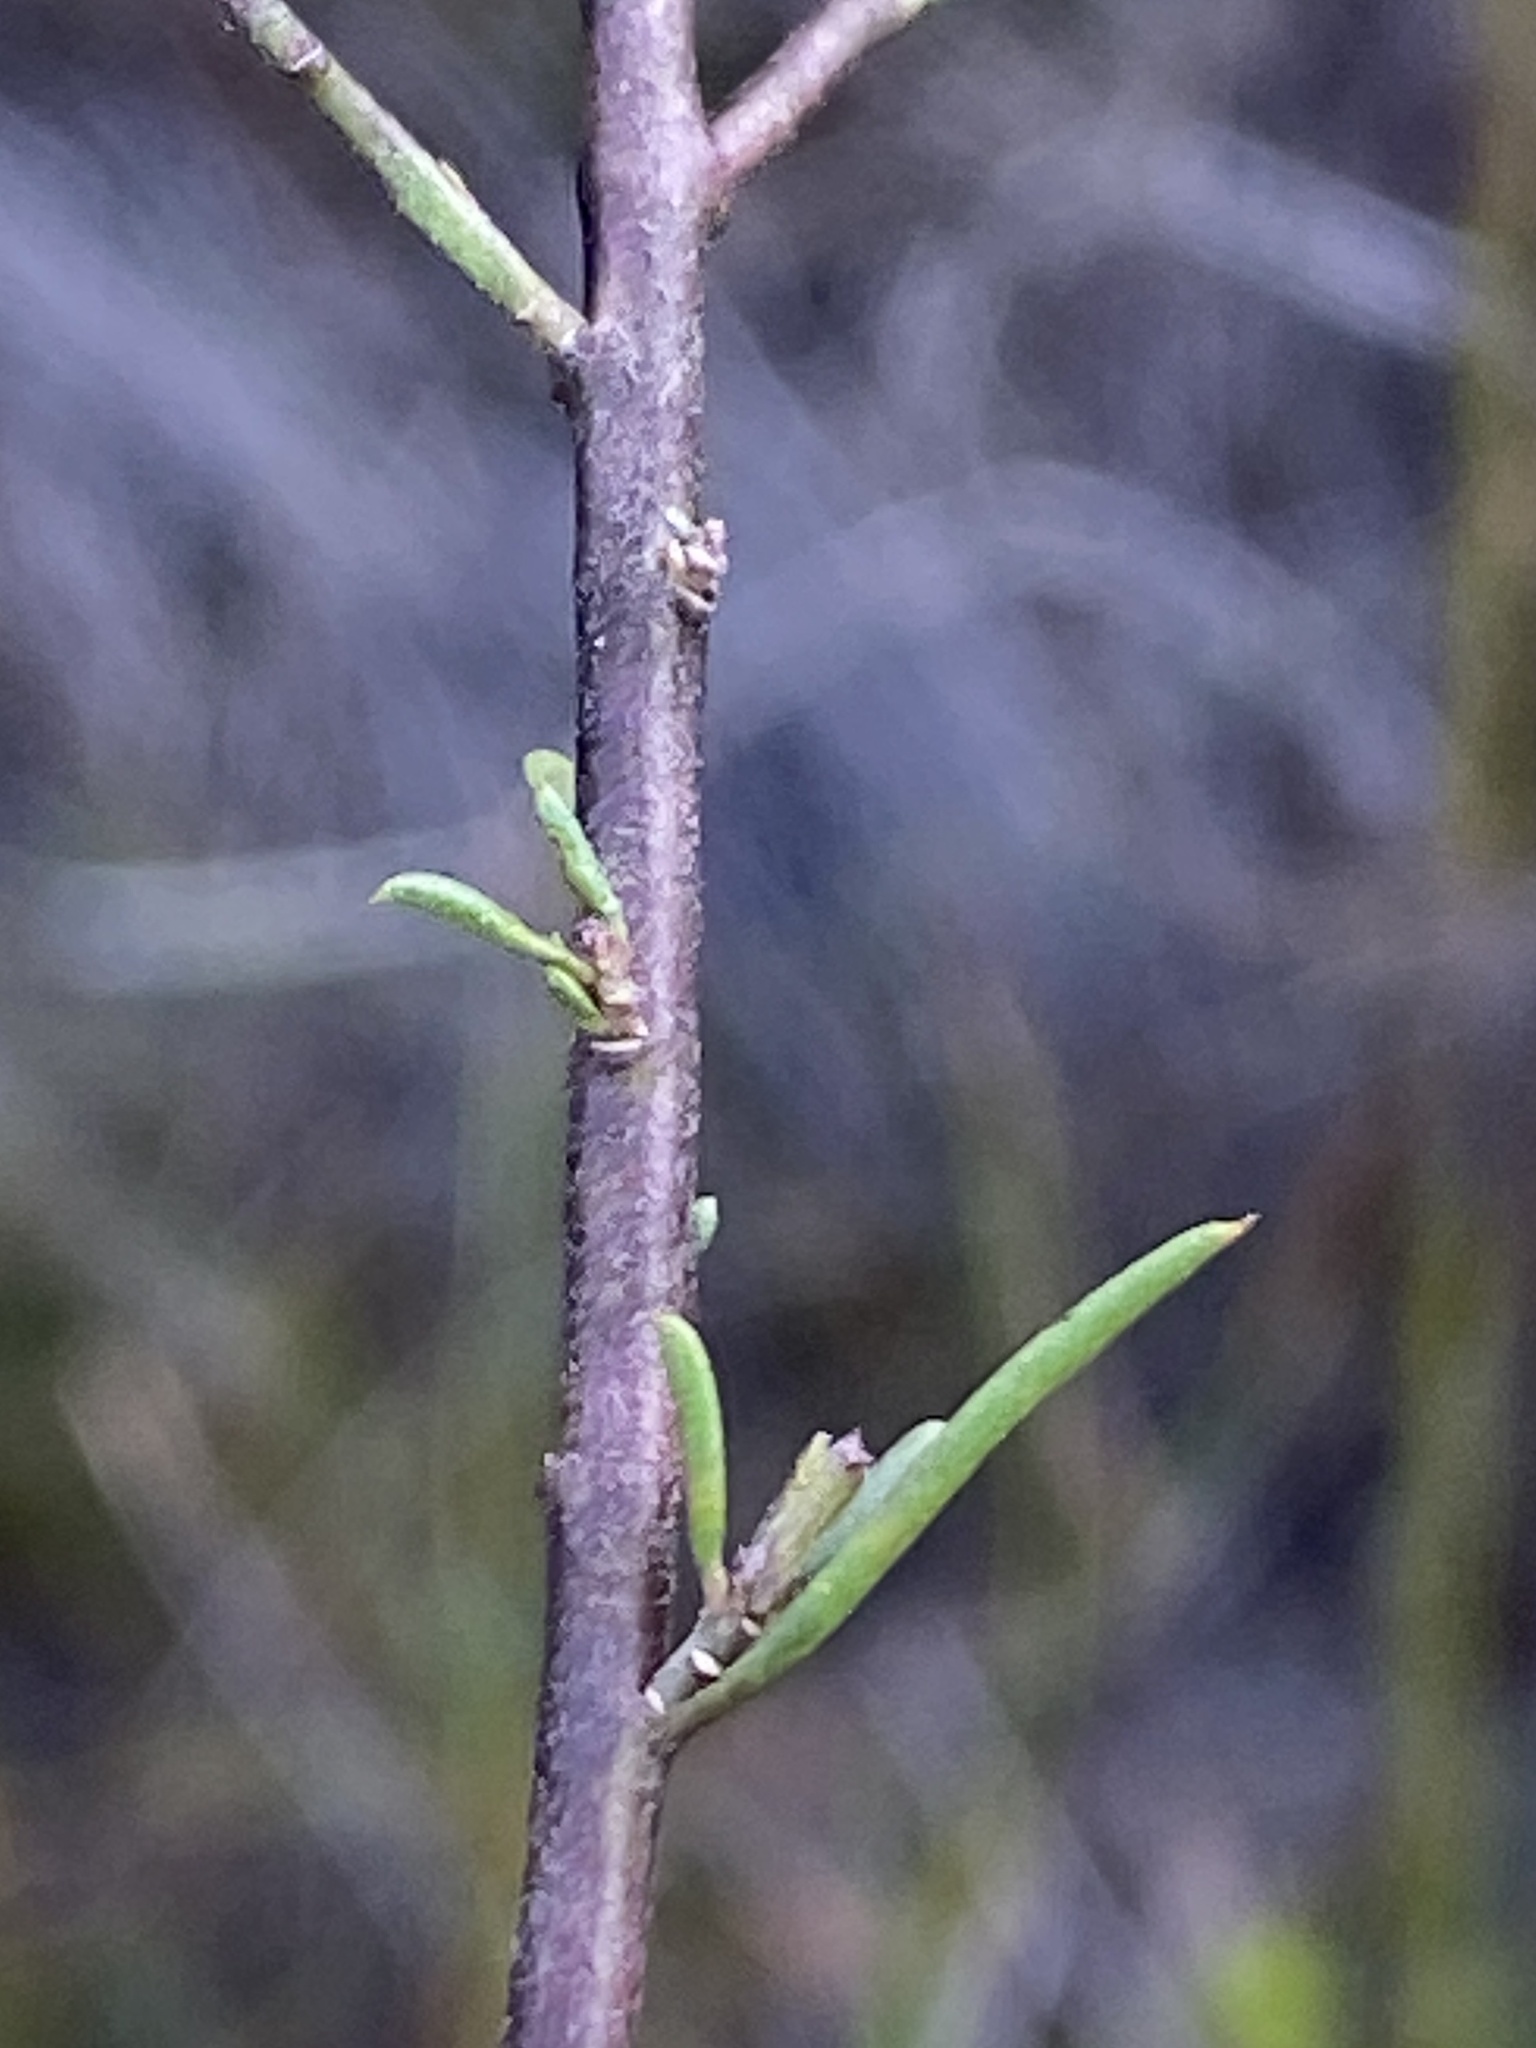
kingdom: Plantae
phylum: Tracheophyta
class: Magnoliopsida
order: Fabales
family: Polygalaceae
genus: Muraltia
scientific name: Muraltia ericoides
